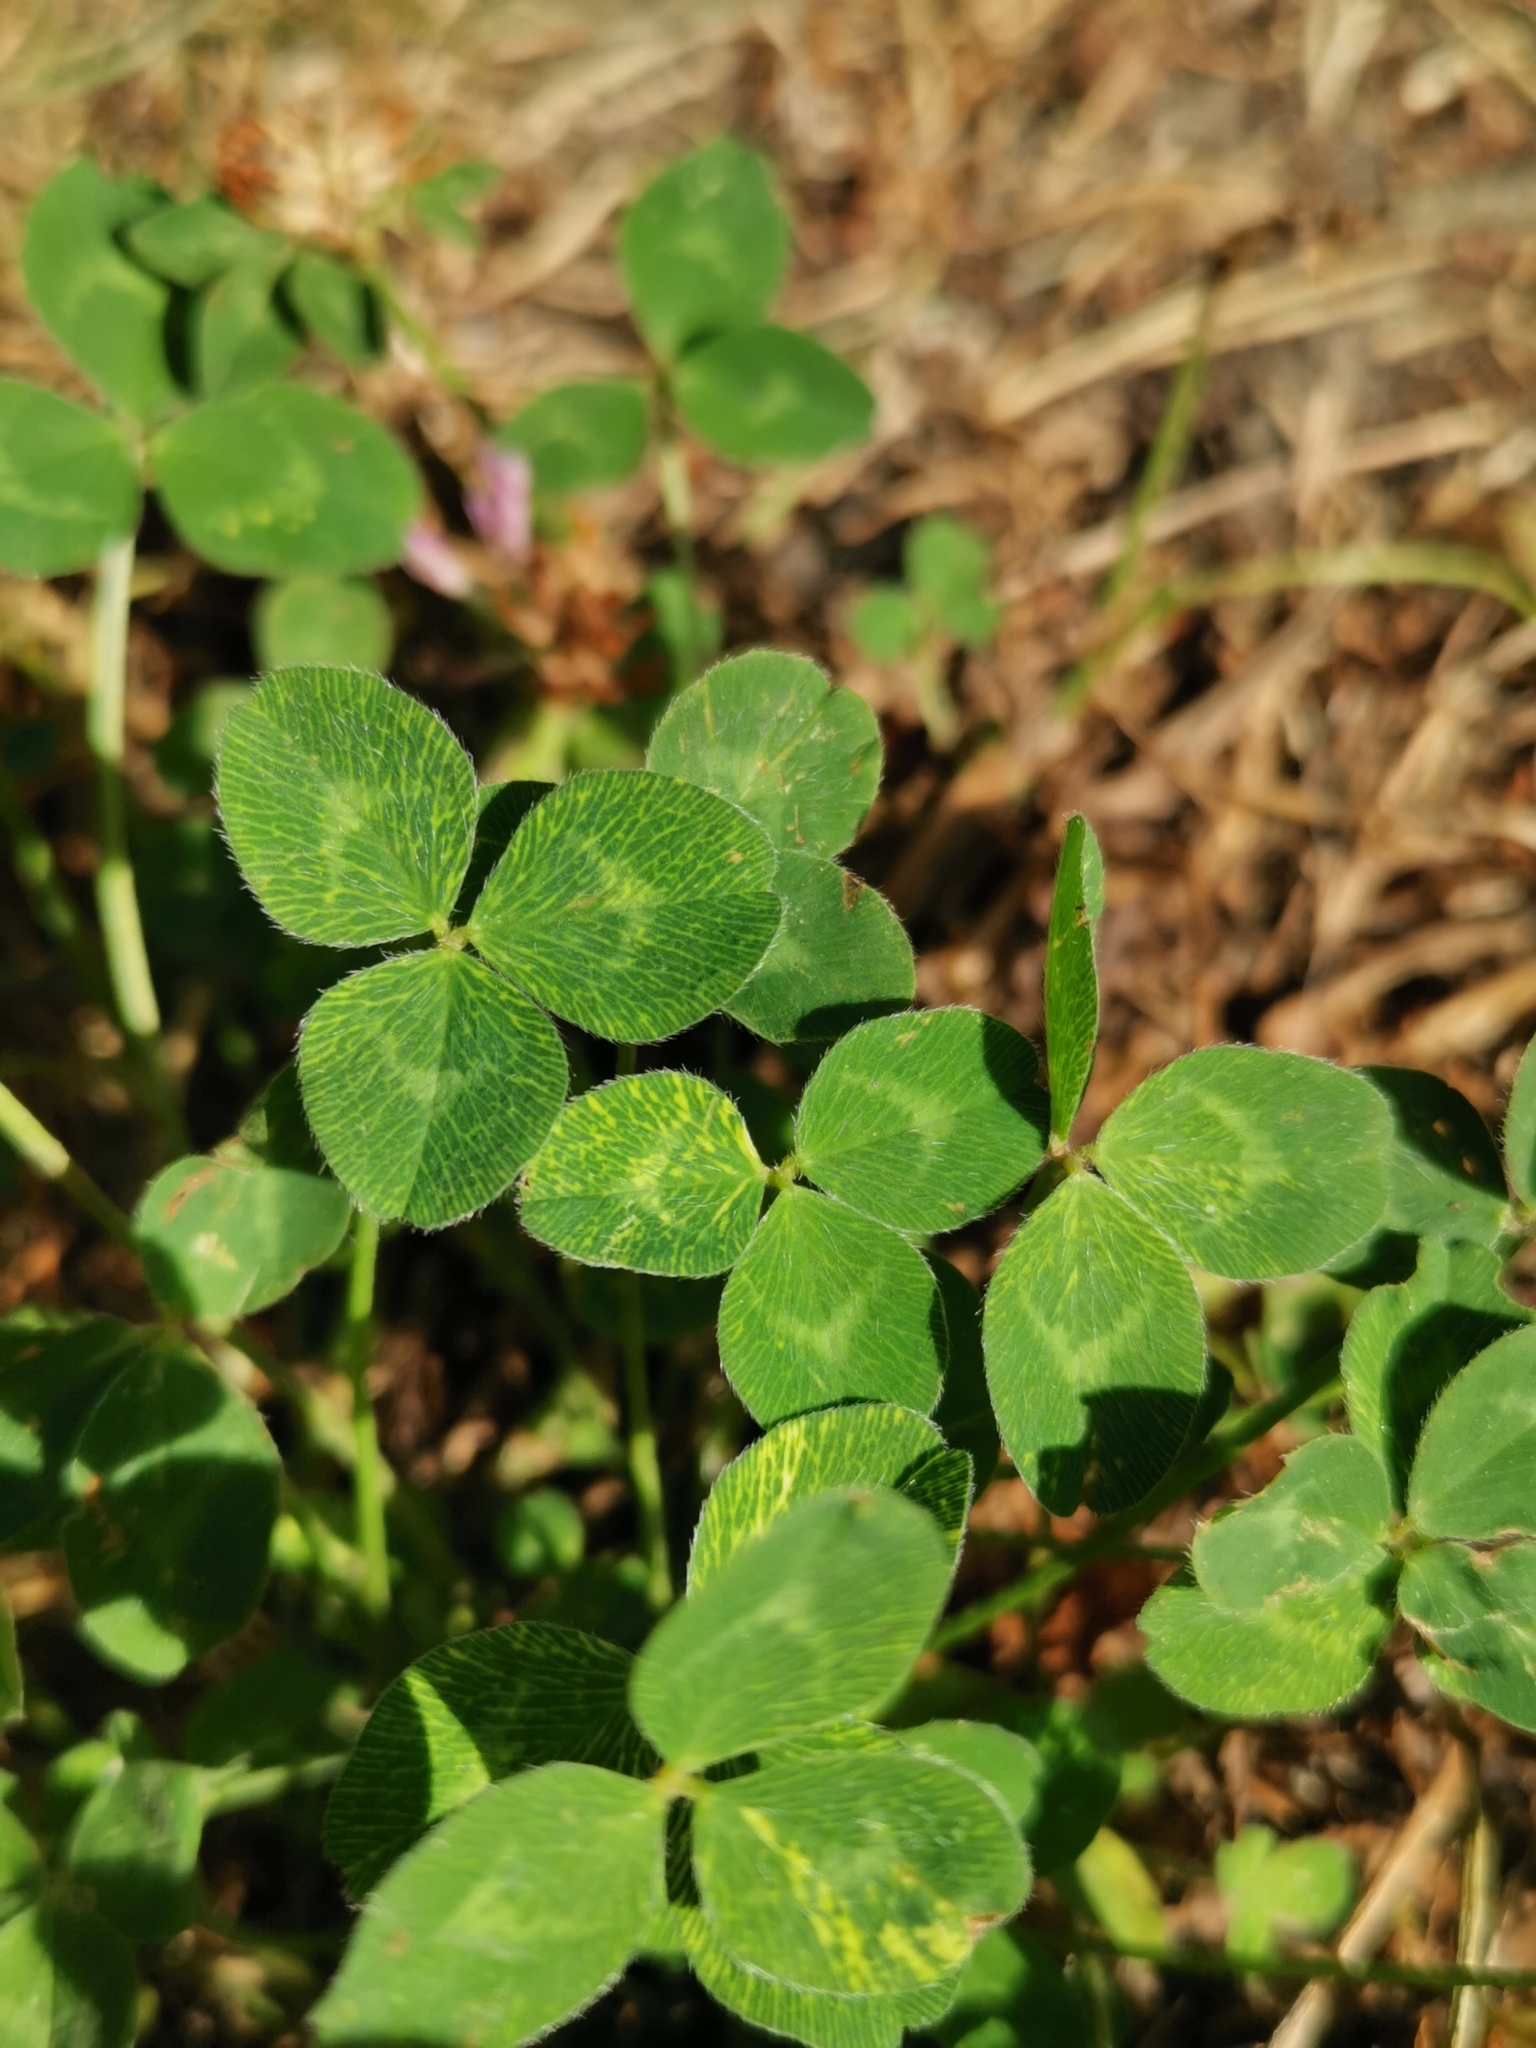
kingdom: Plantae
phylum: Tracheophyta
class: Magnoliopsida
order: Fabales
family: Fabaceae
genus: Trifolium
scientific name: Trifolium pratense
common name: Red clover
